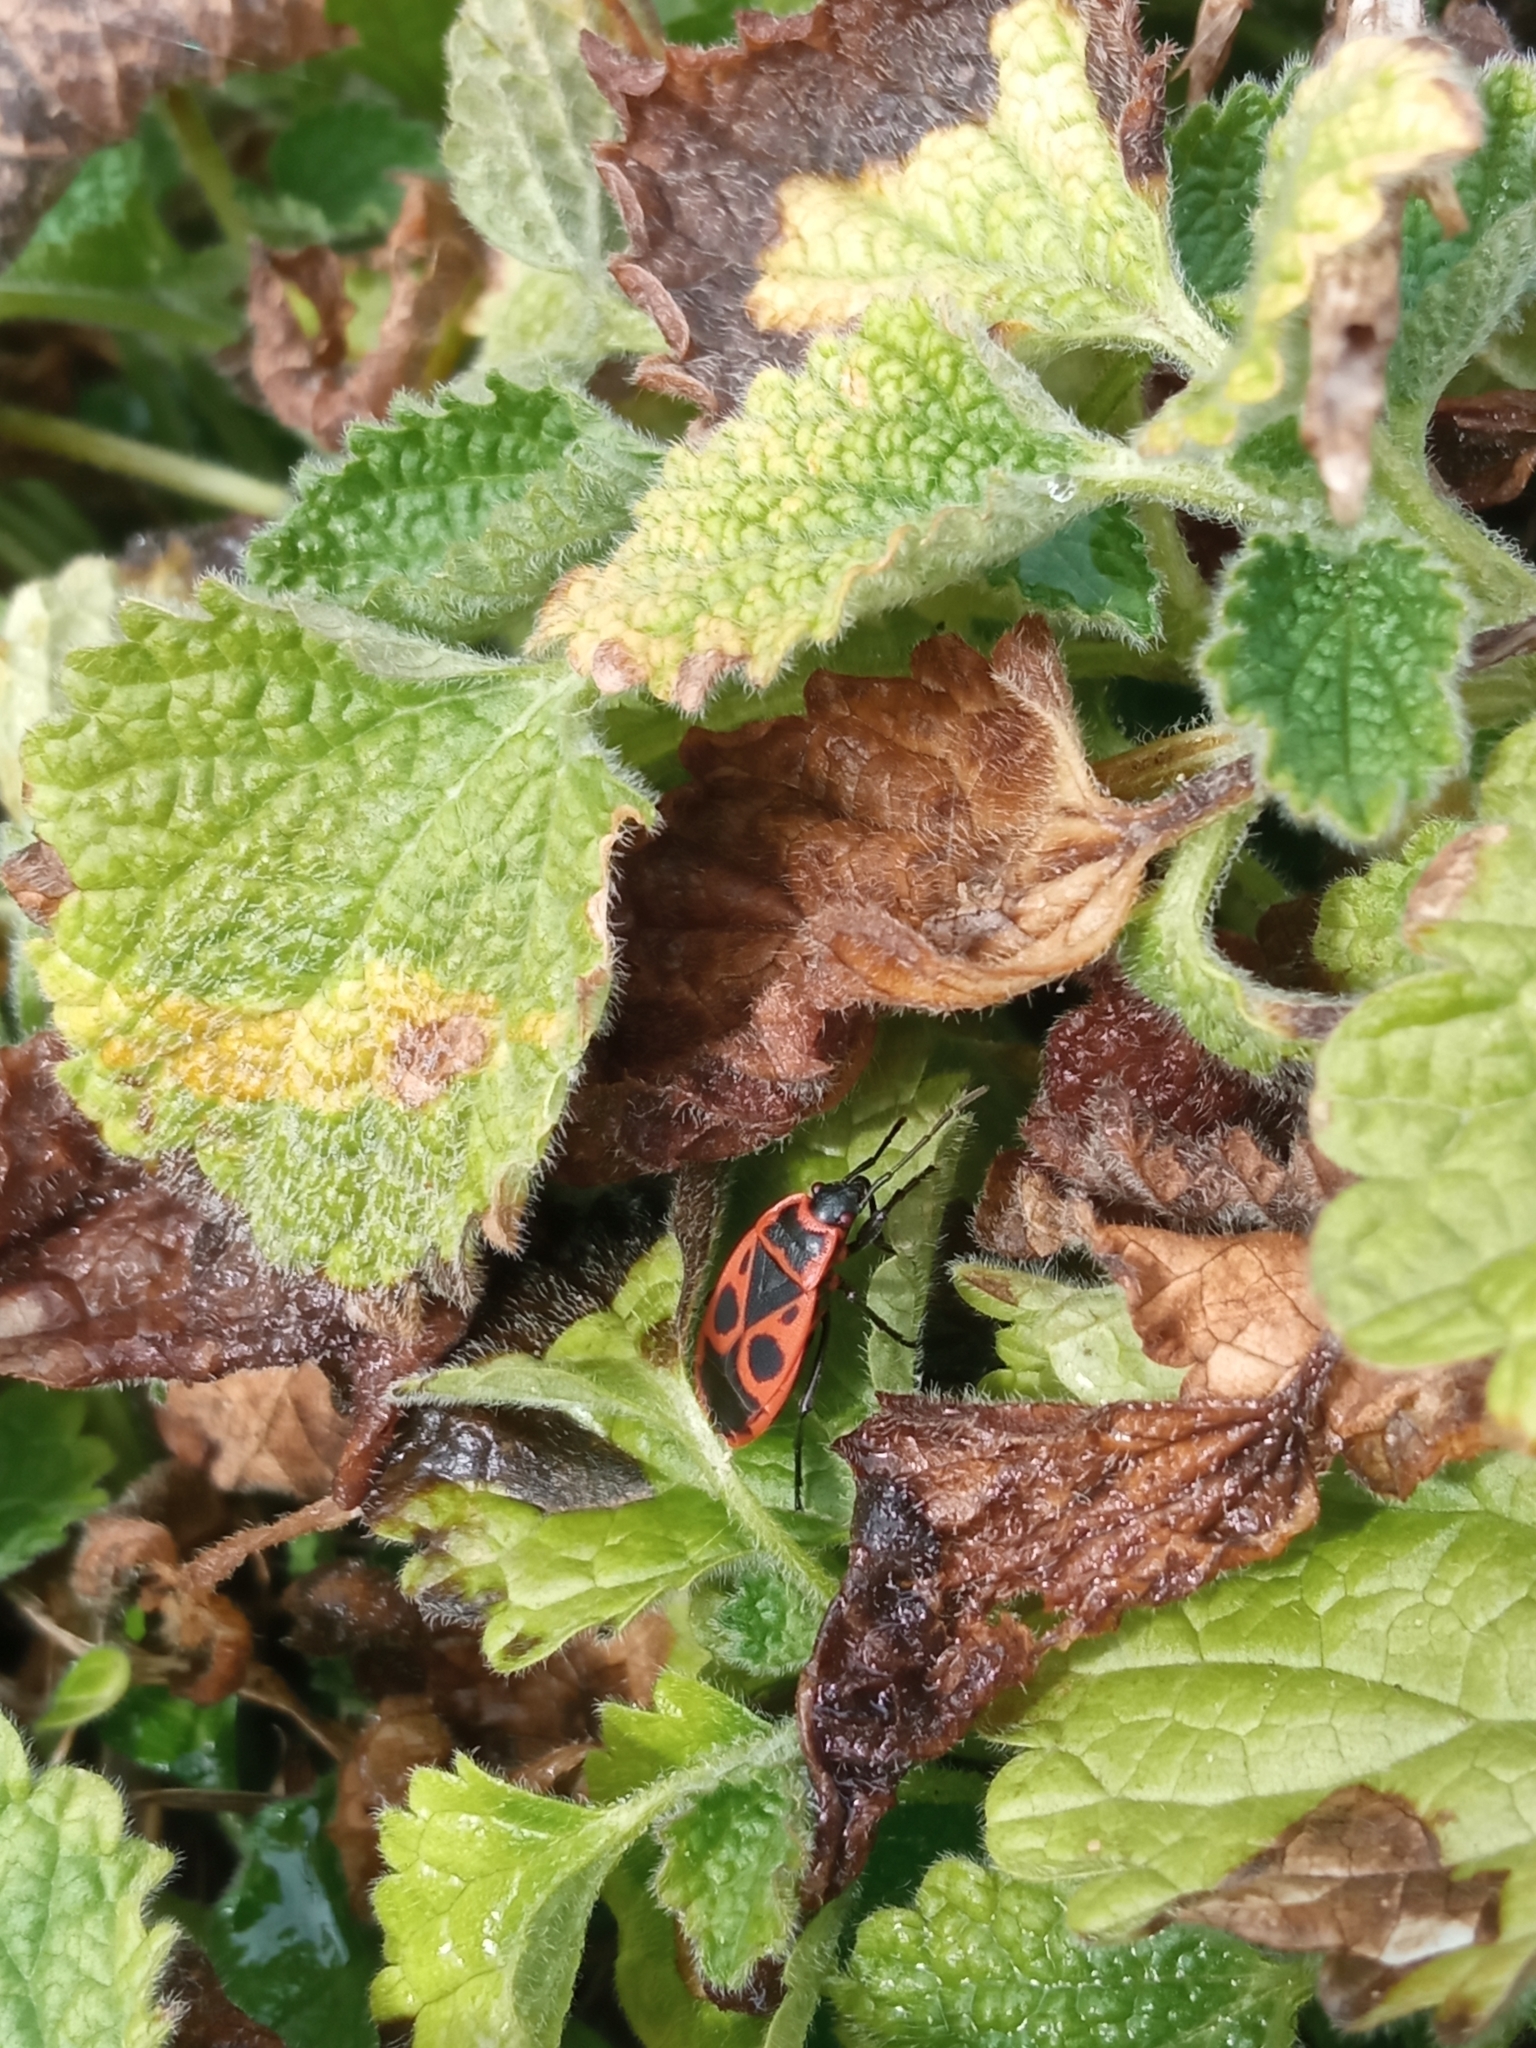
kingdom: Animalia
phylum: Arthropoda
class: Insecta
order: Hemiptera
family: Pyrrhocoridae
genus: Pyrrhocoris
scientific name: Pyrrhocoris apterus
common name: Firebug
